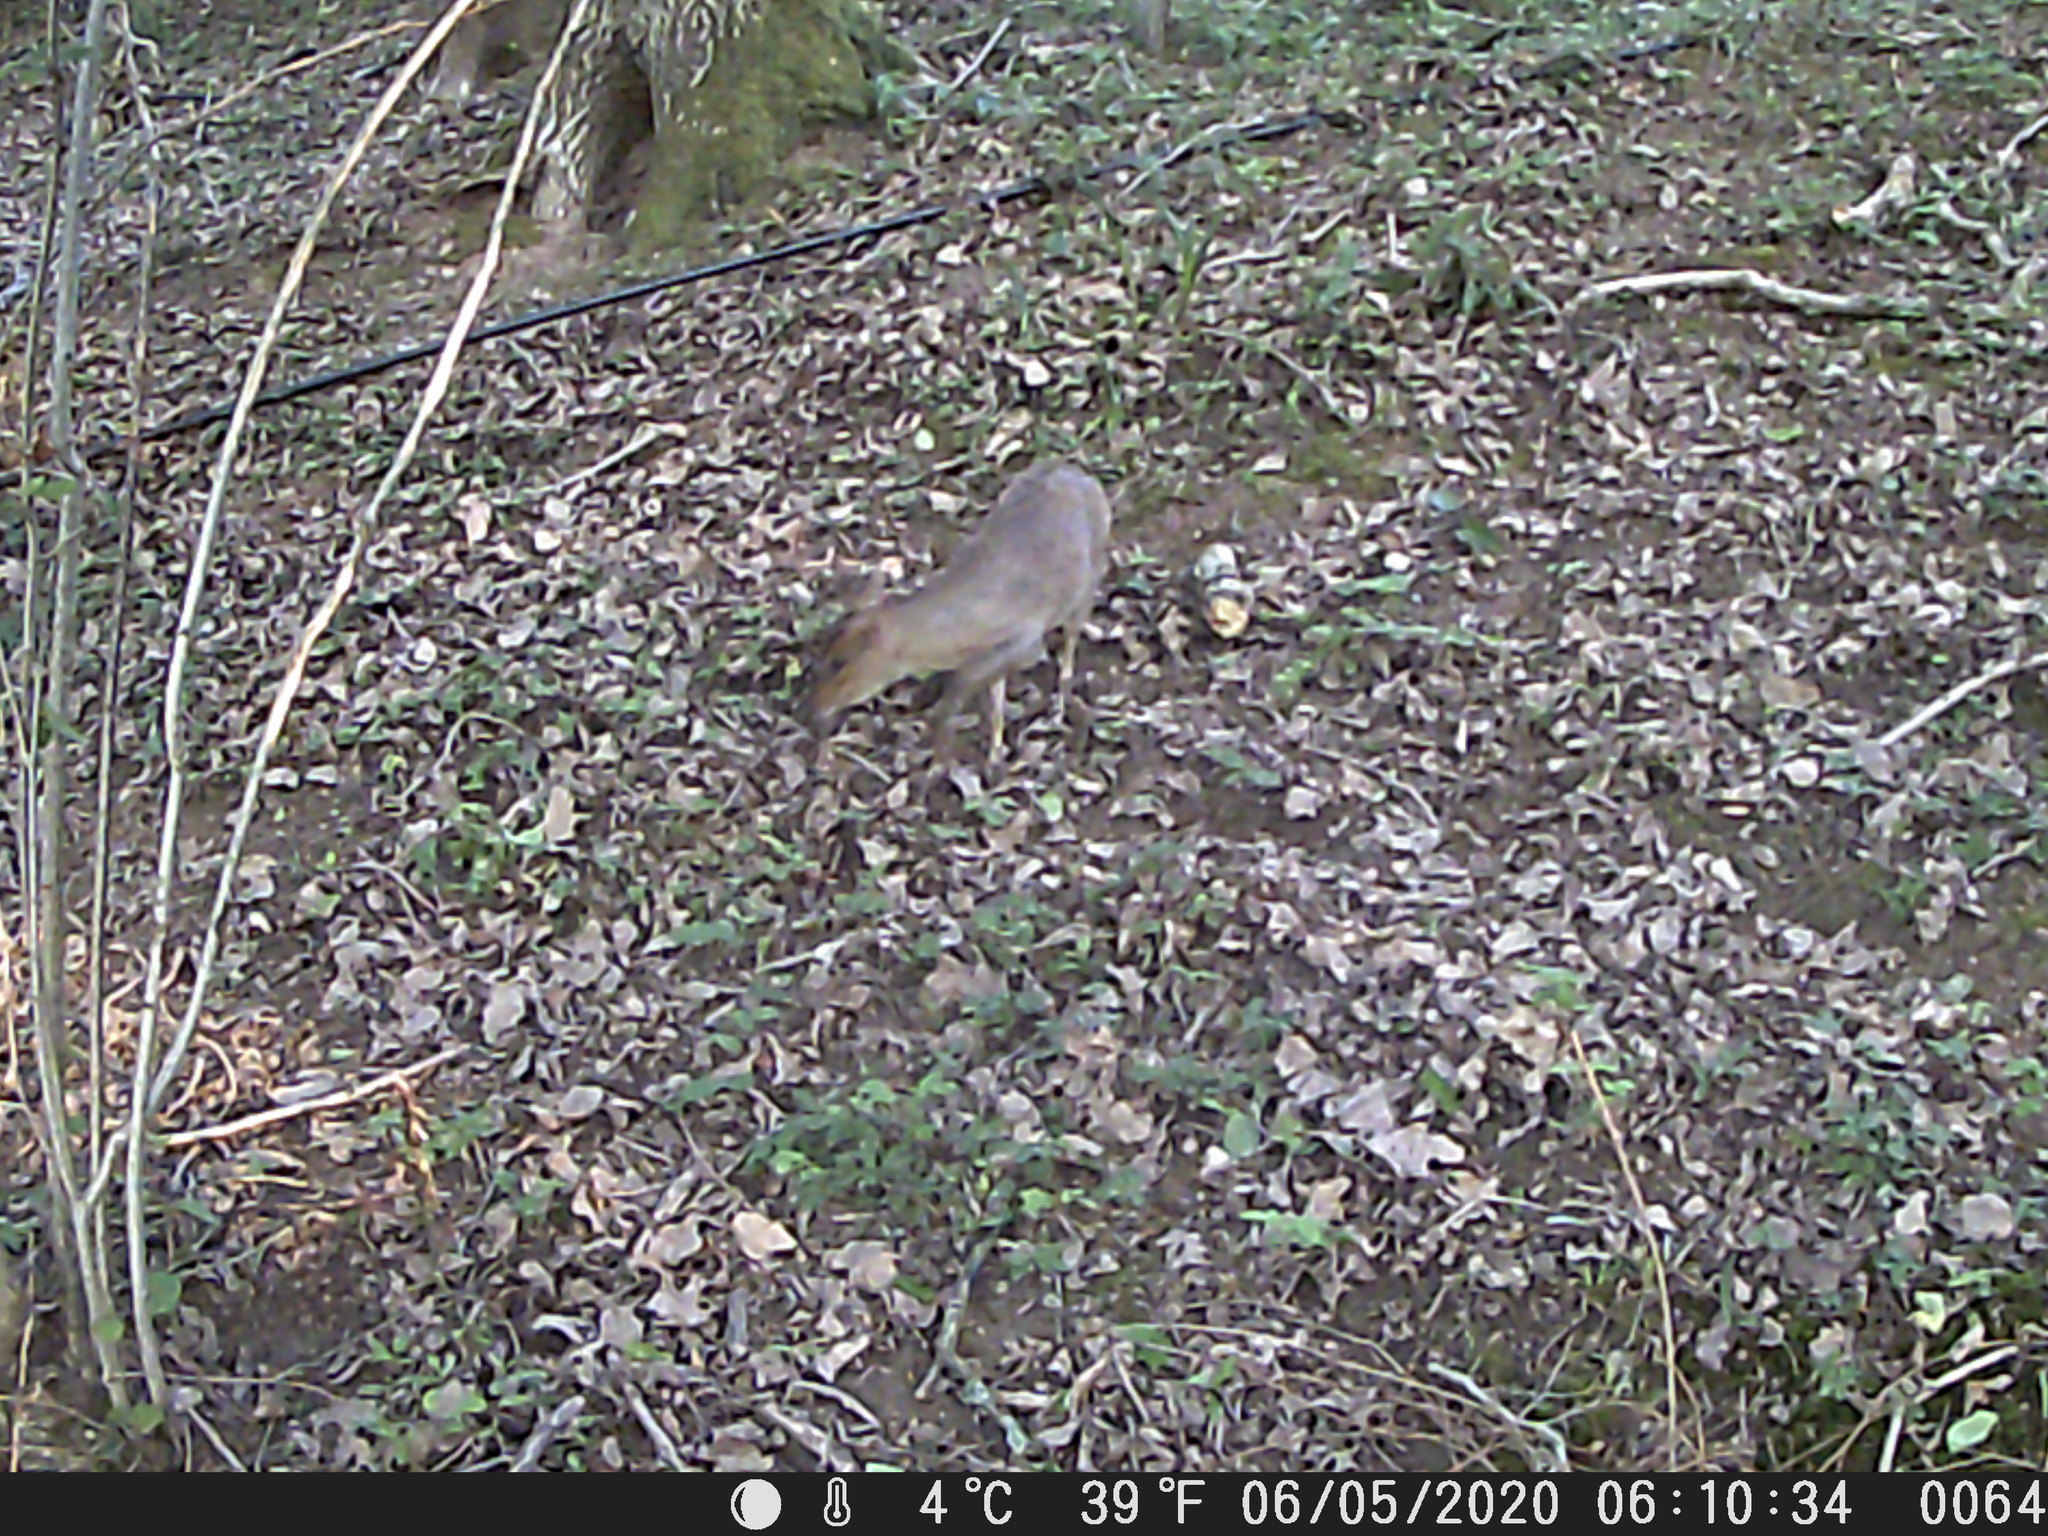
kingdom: Animalia
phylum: Chordata
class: Mammalia
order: Artiodactyla
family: Cervidae
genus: Muntiacus
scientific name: Muntiacus reevesi
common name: Reeves' muntjac
